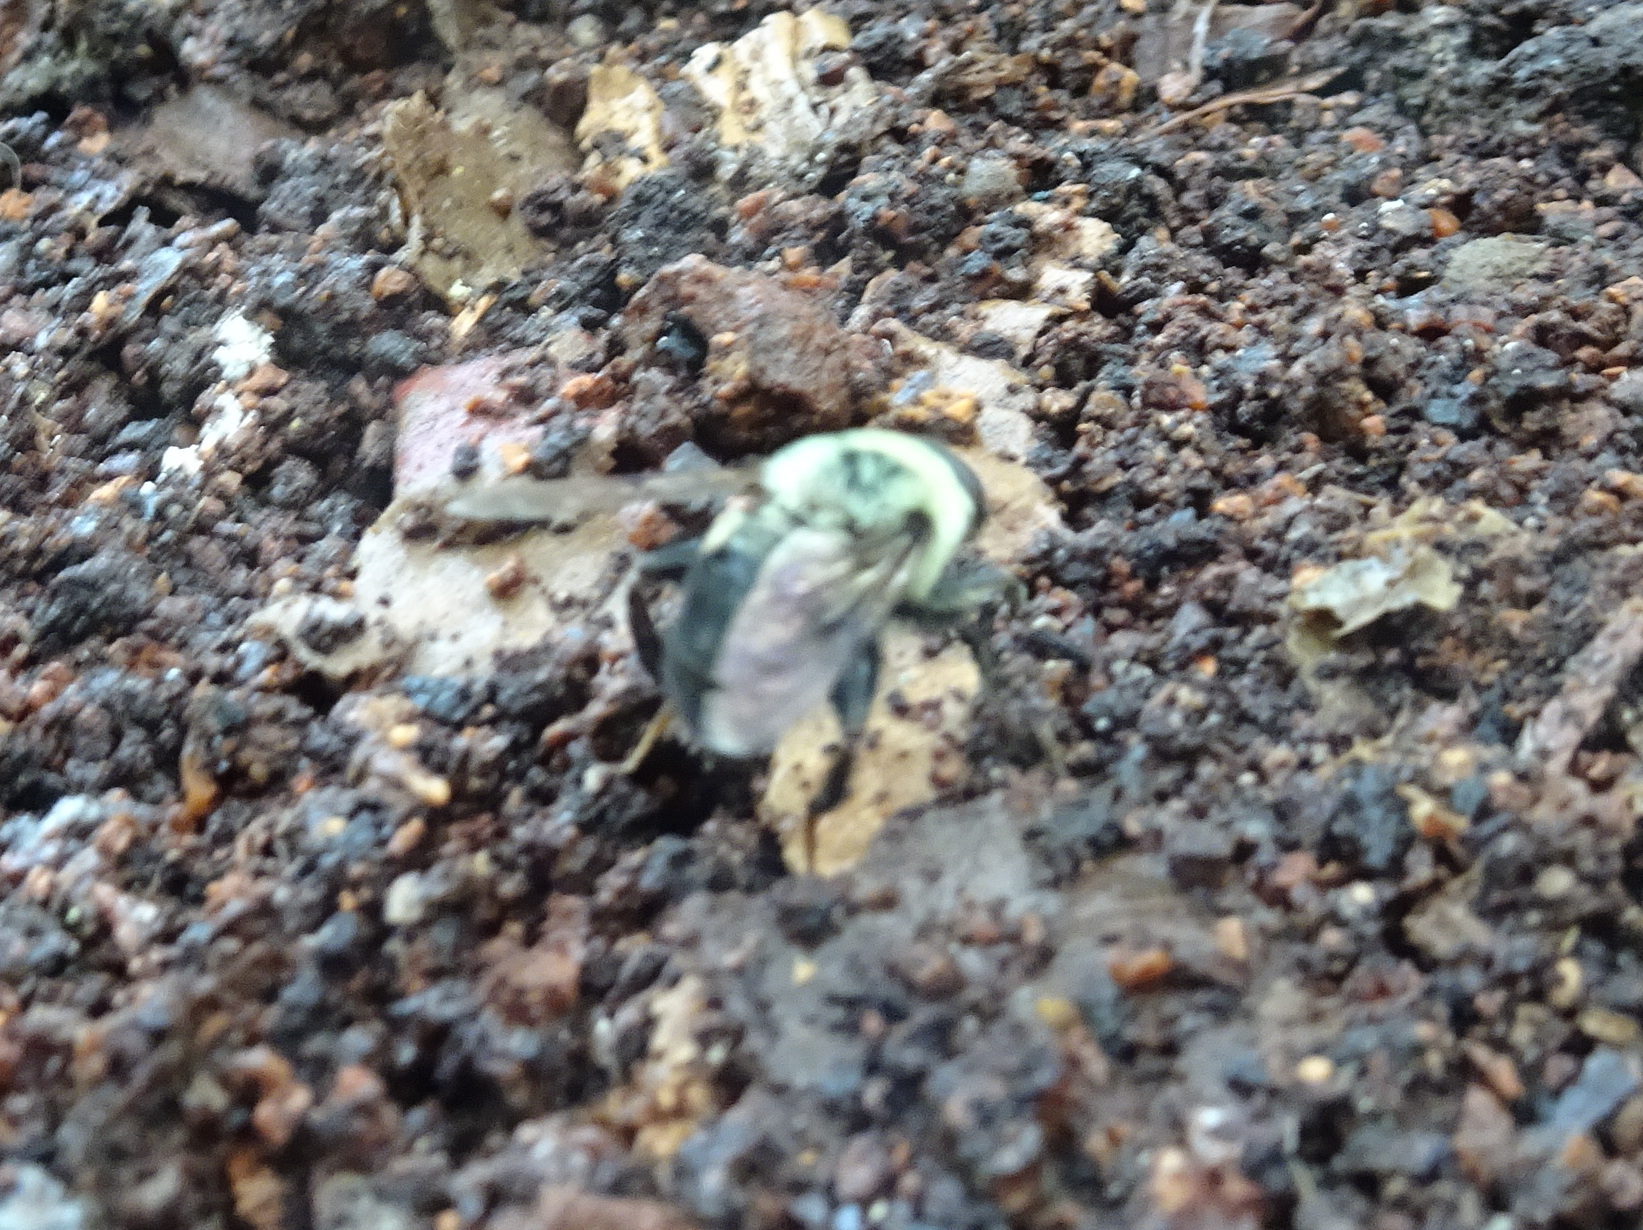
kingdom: Animalia
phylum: Arthropoda
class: Insecta
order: Diptera
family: Syrphidae
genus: Imatisma
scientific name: Imatisma posticata
